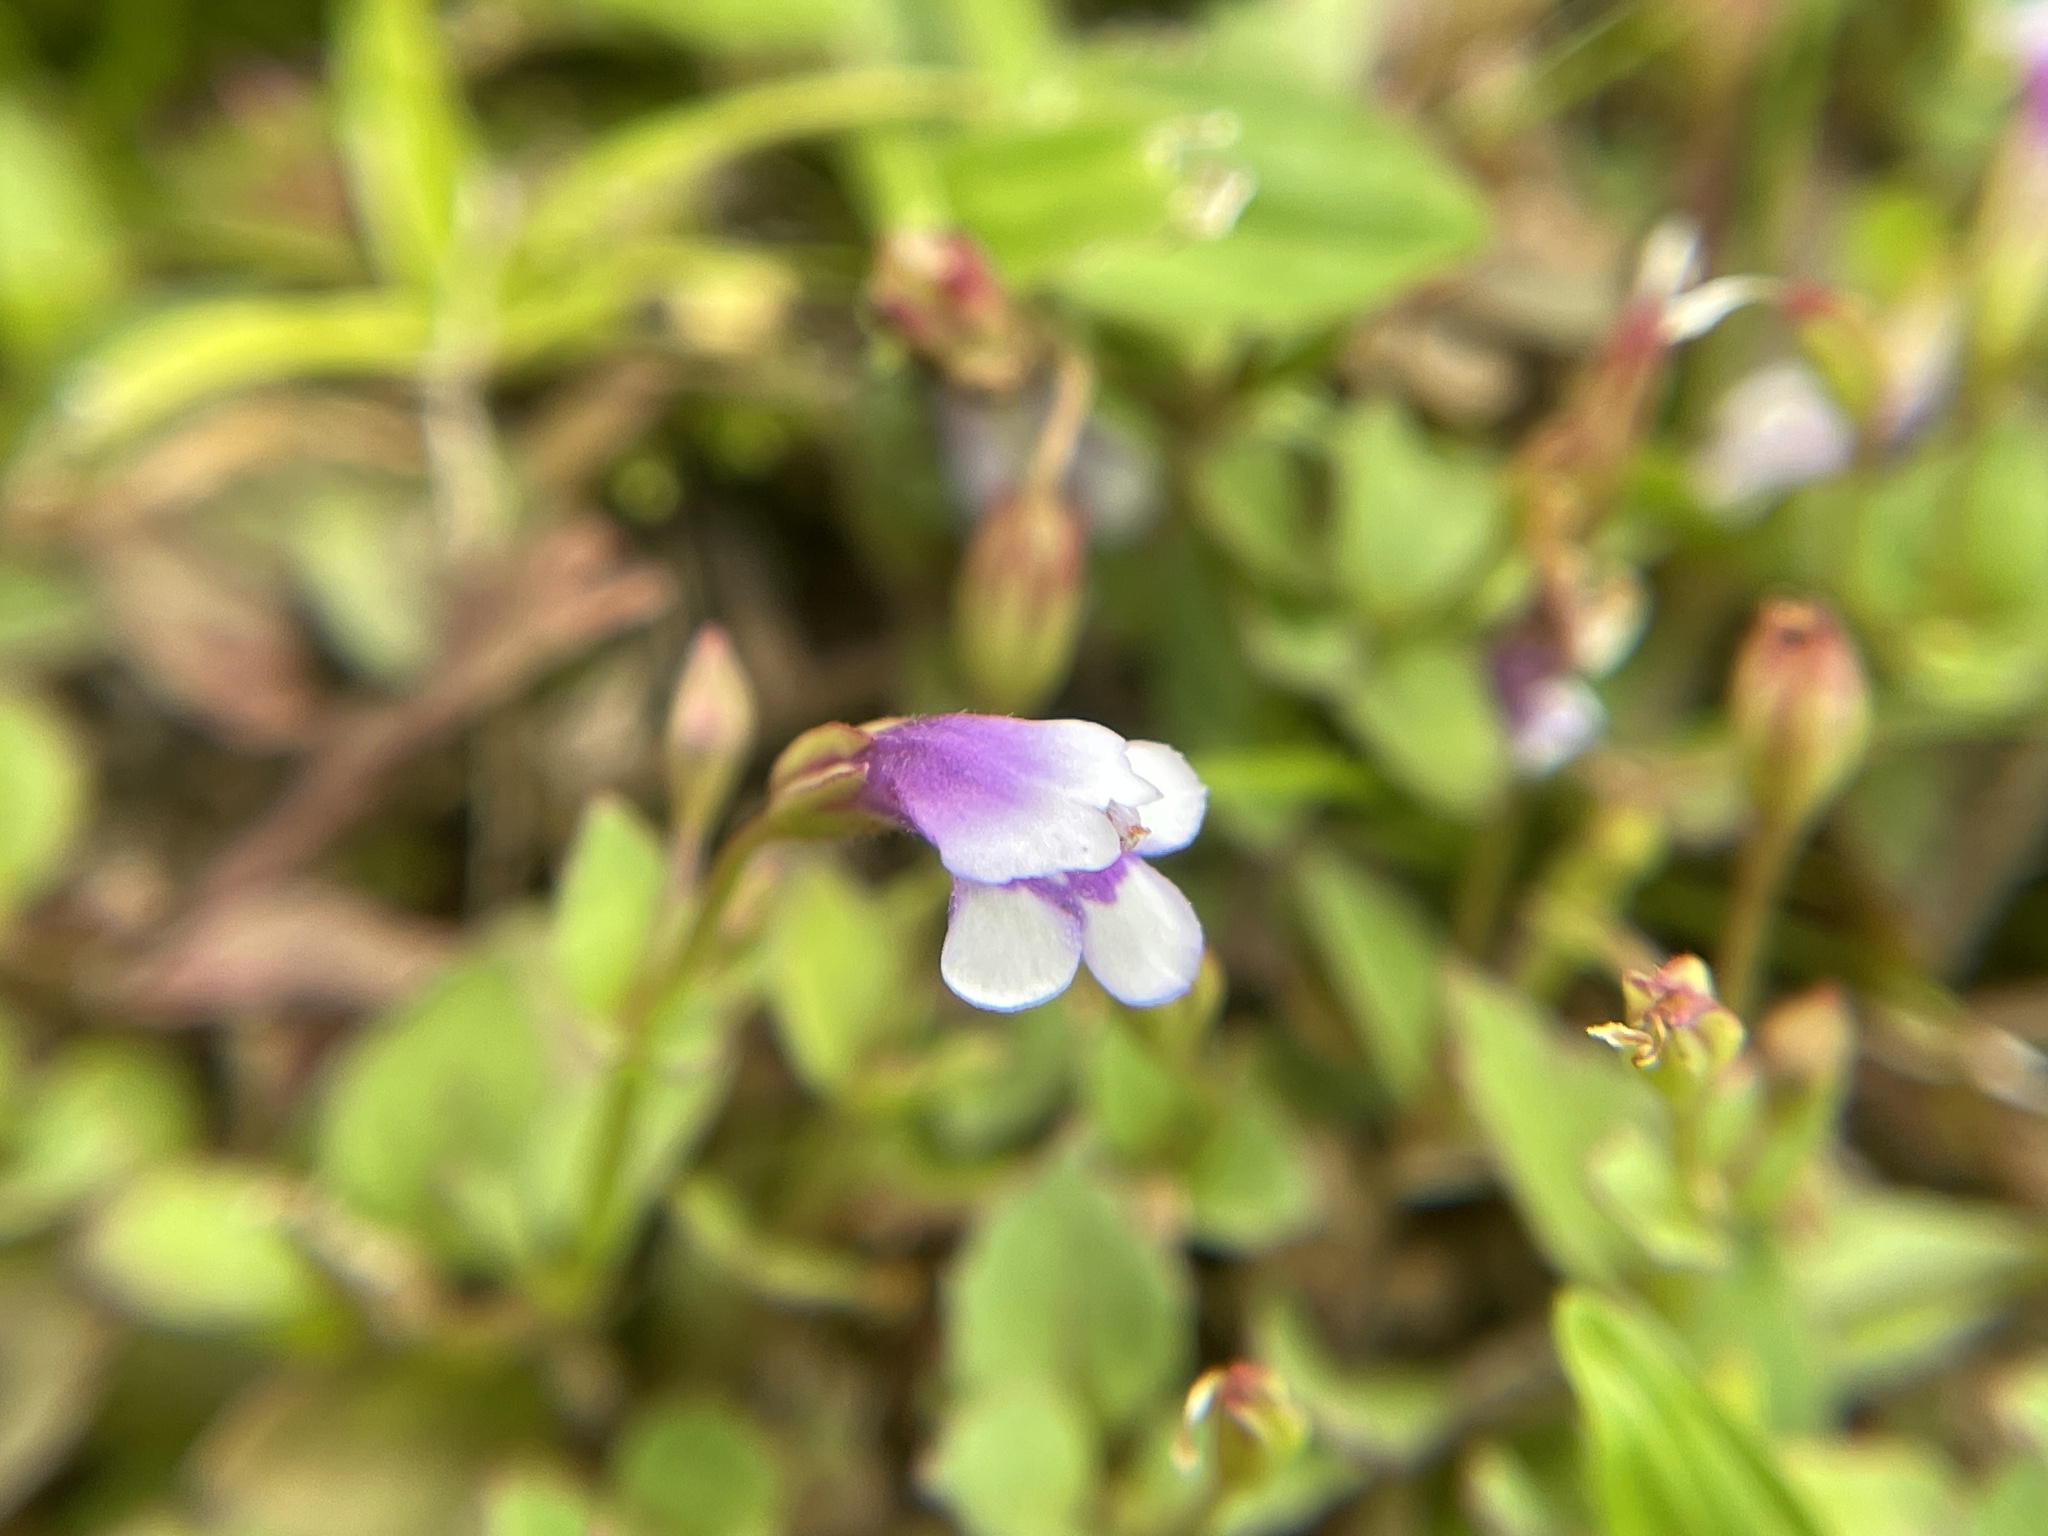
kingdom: Plantae
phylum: Tracheophyta
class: Magnoliopsida
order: Lamiales
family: Linderniaceae
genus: Torenia
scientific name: Torenia crustacea
